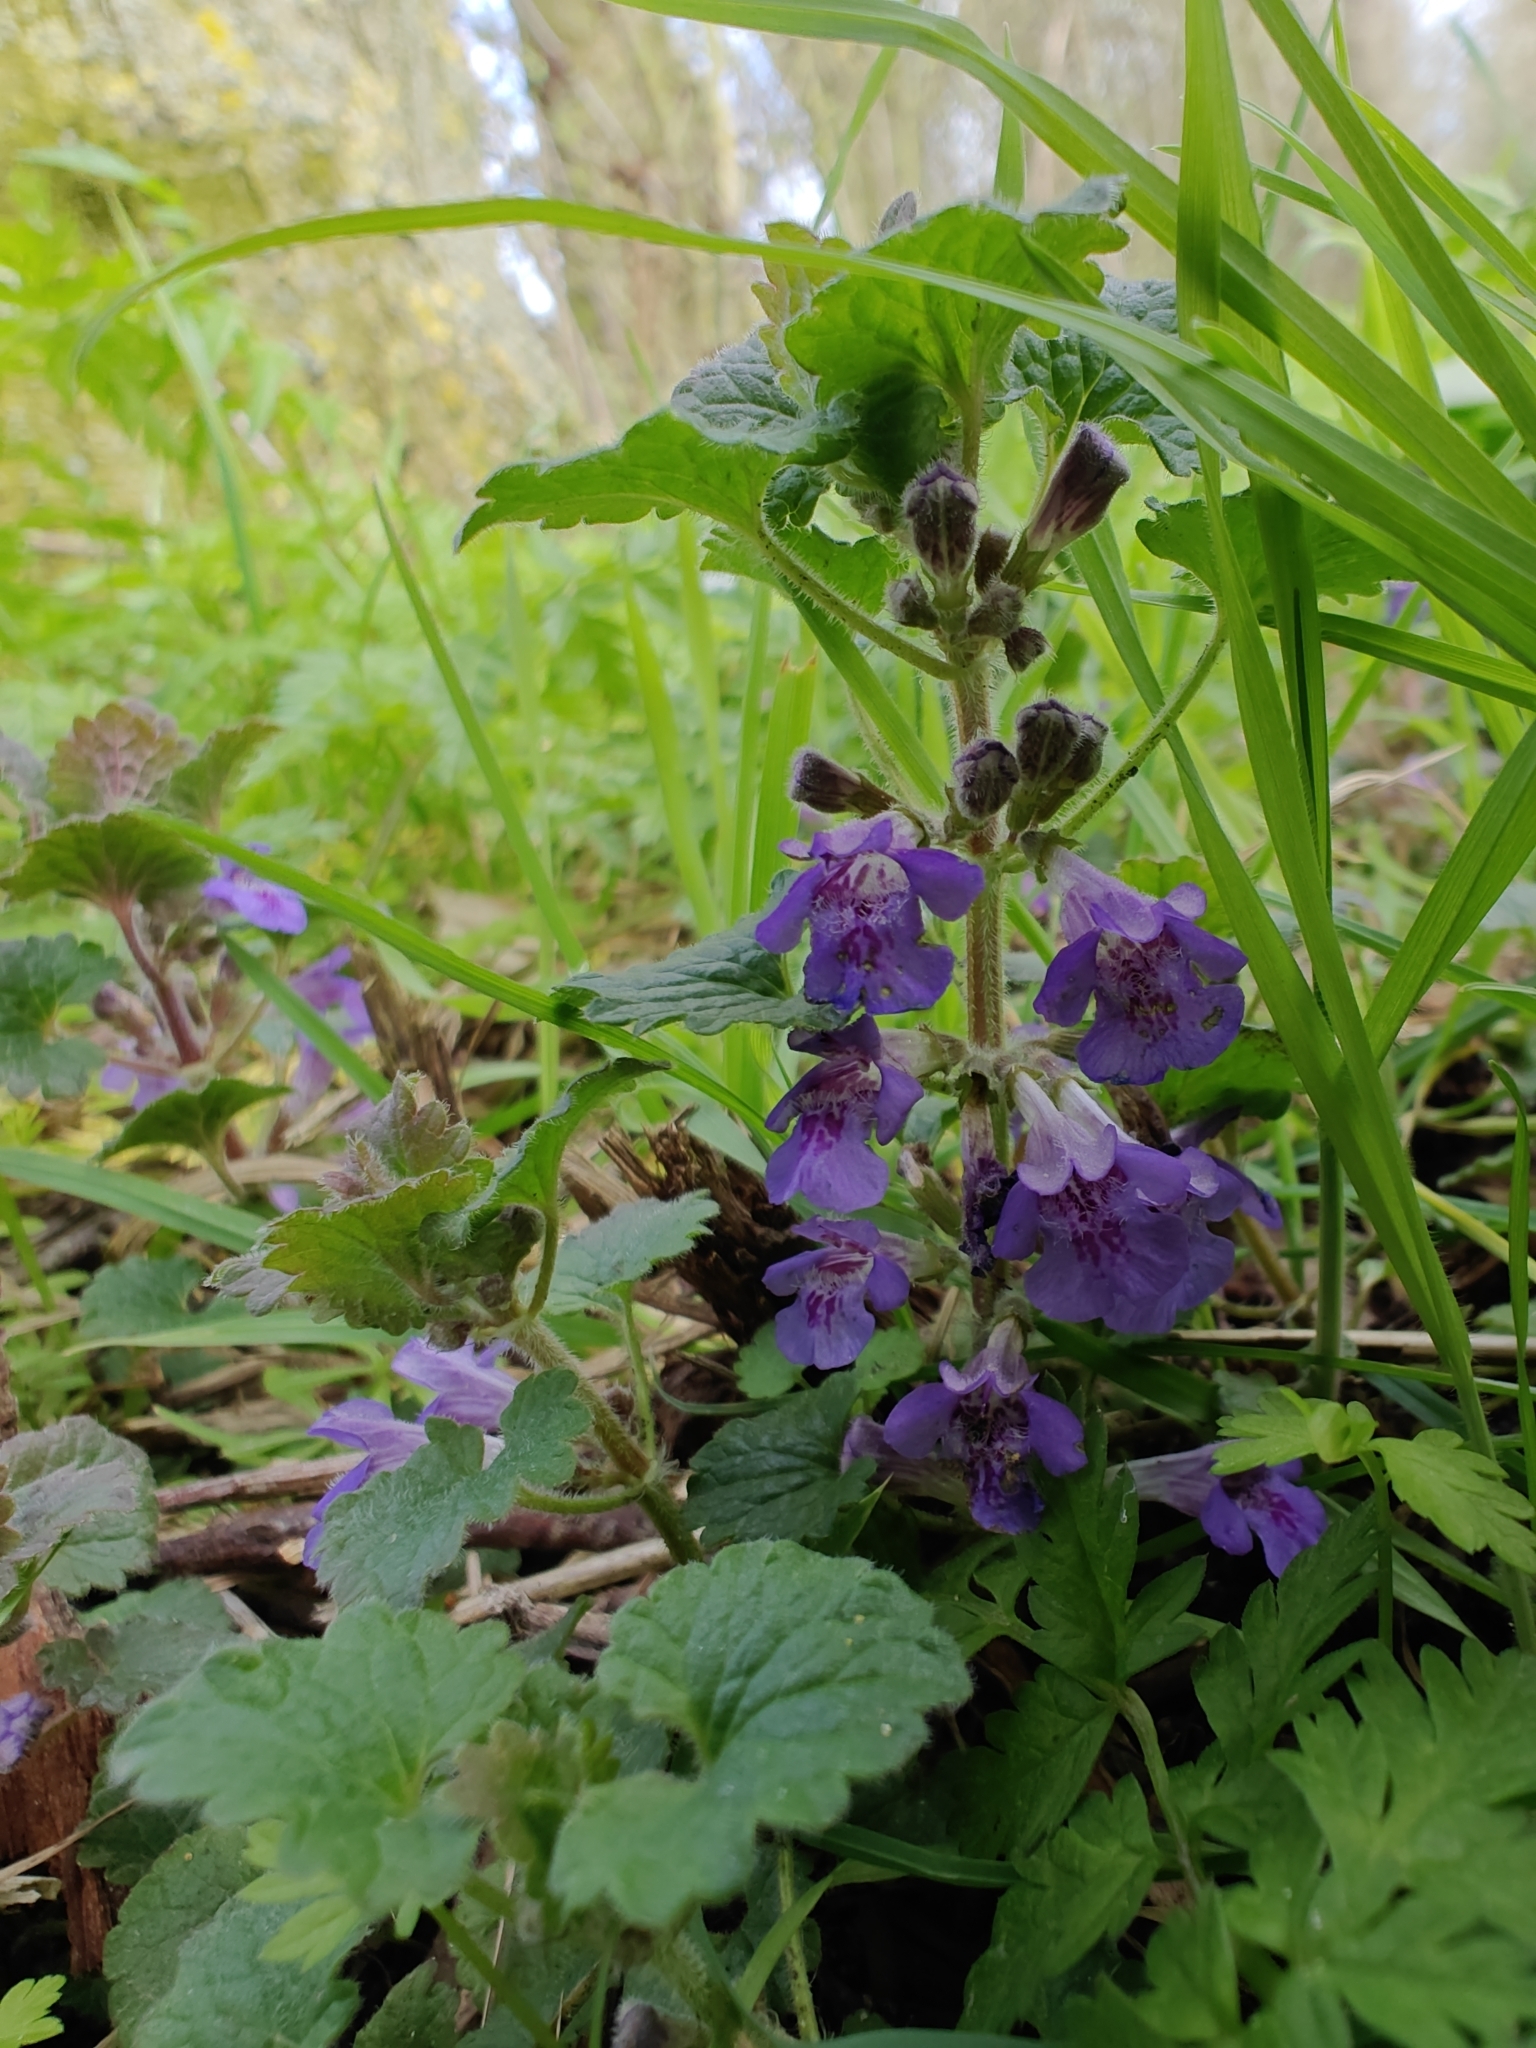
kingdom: Plantae
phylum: Tracheophyta
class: Magnoliopsida
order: Lamiales
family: Lamiaceae
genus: Glechoma
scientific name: Glechoma hederacea
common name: Ground ivy
